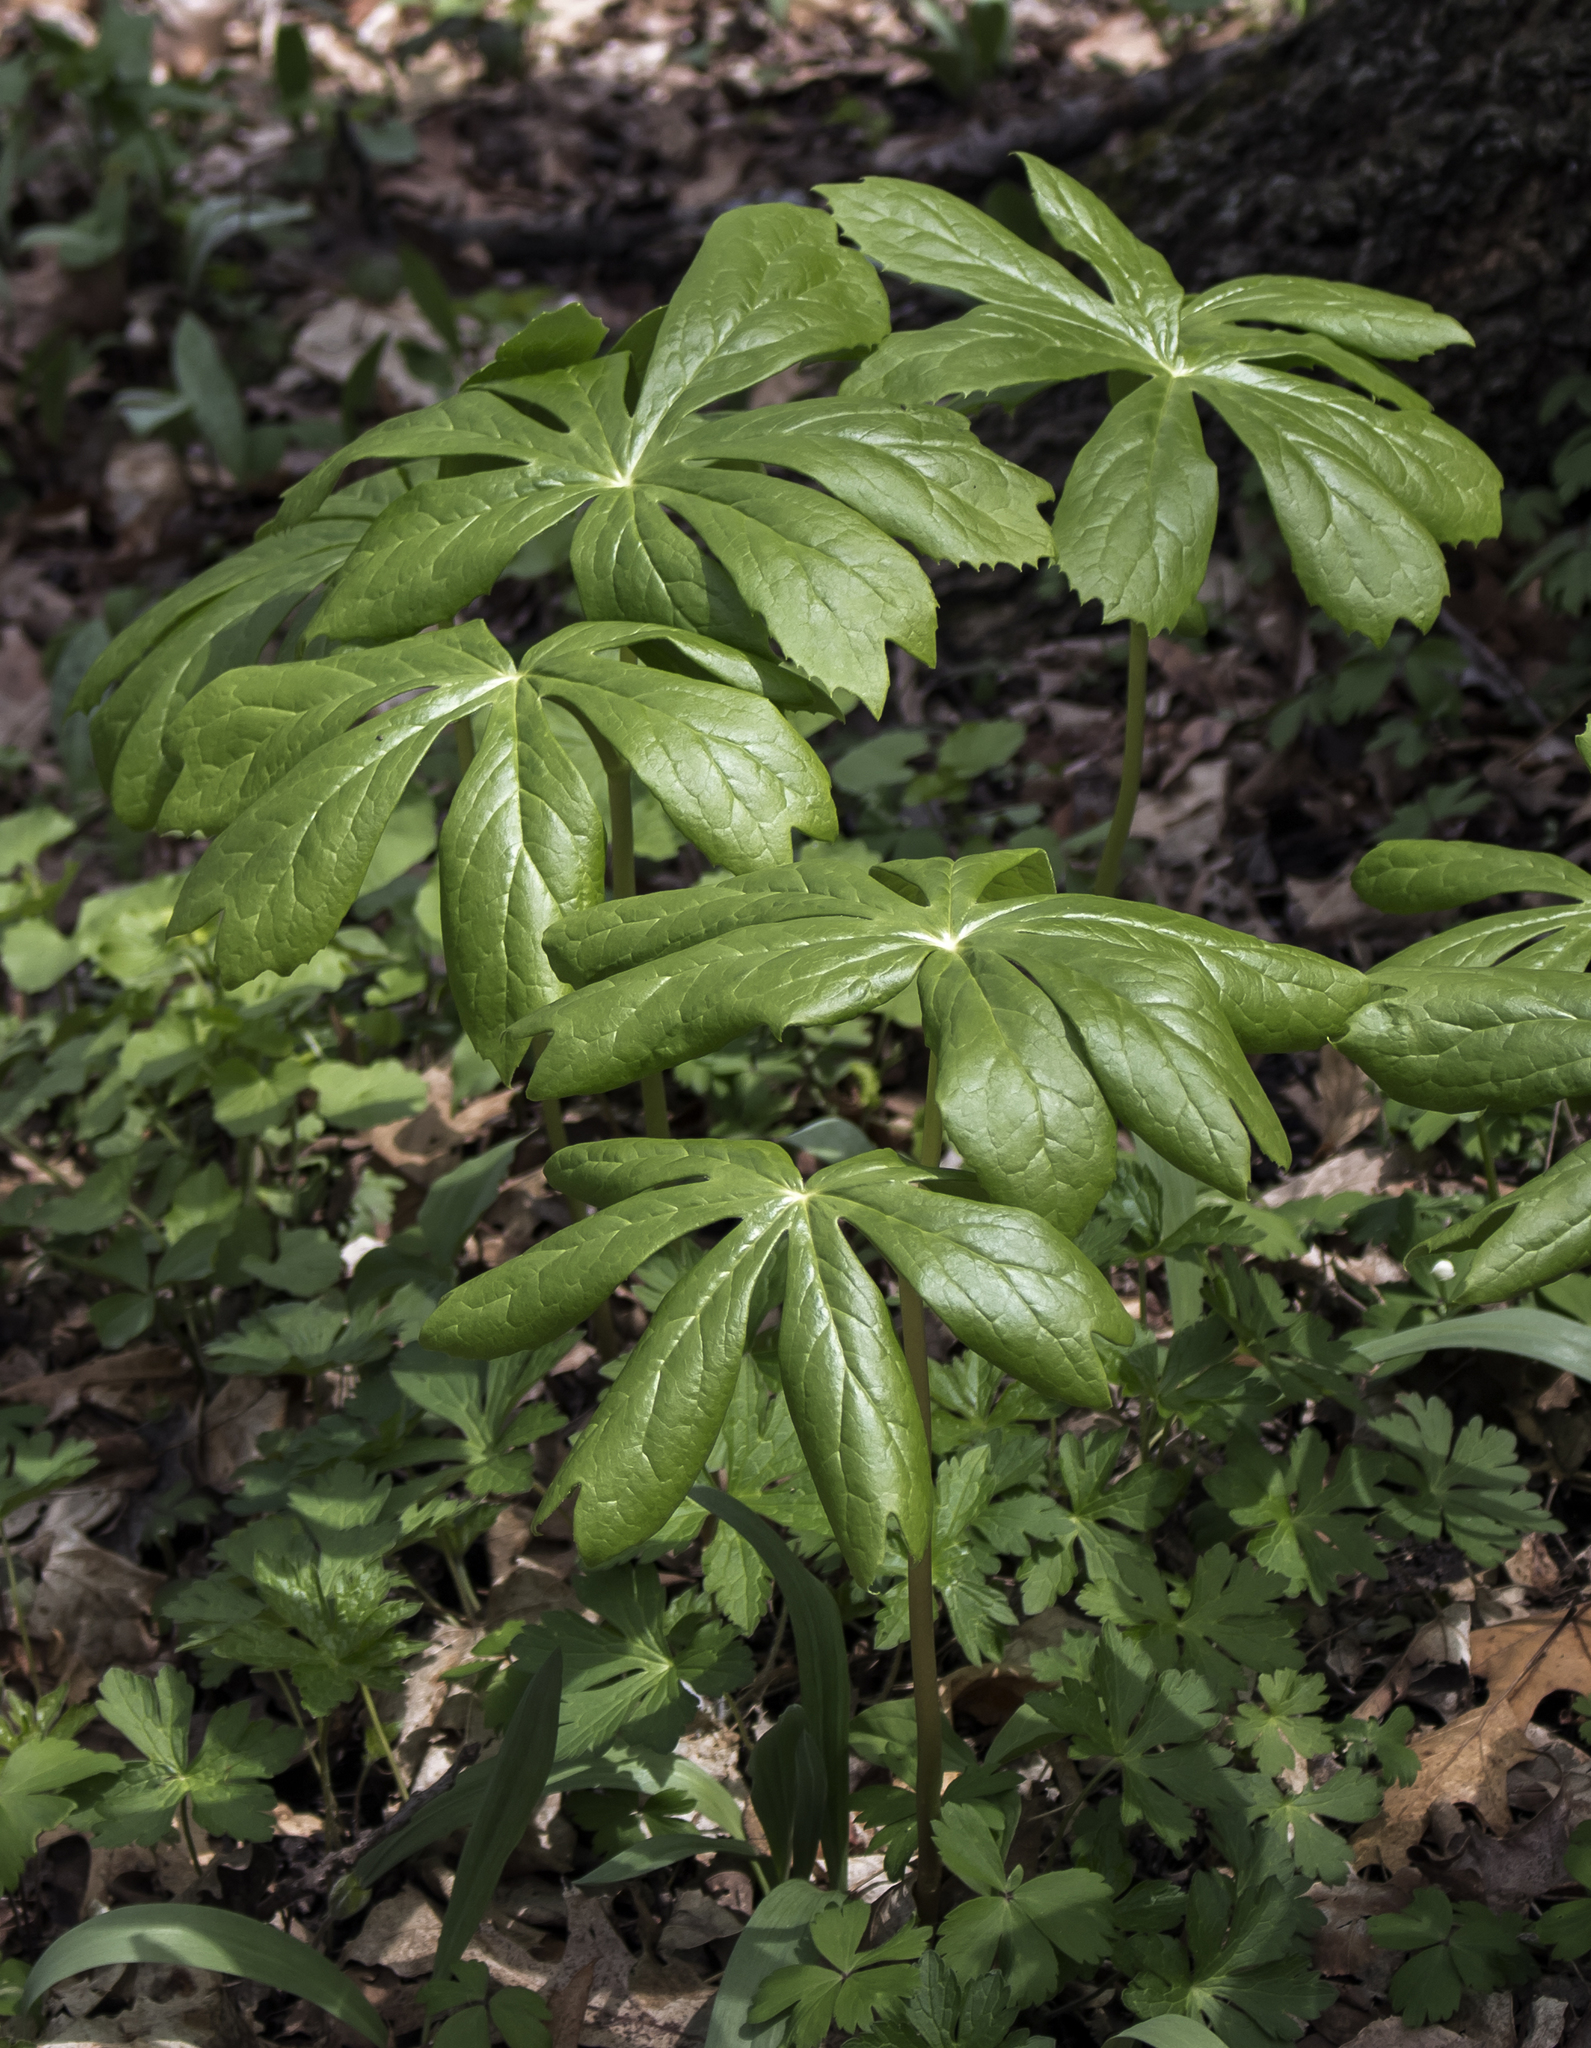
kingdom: Plantae
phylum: Tracheophyta
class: Magnoliopsida
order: Ranunculales
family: Berberidaceae
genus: Podophyllum
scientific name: Podophyllum peltatum
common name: Wild mandrake
